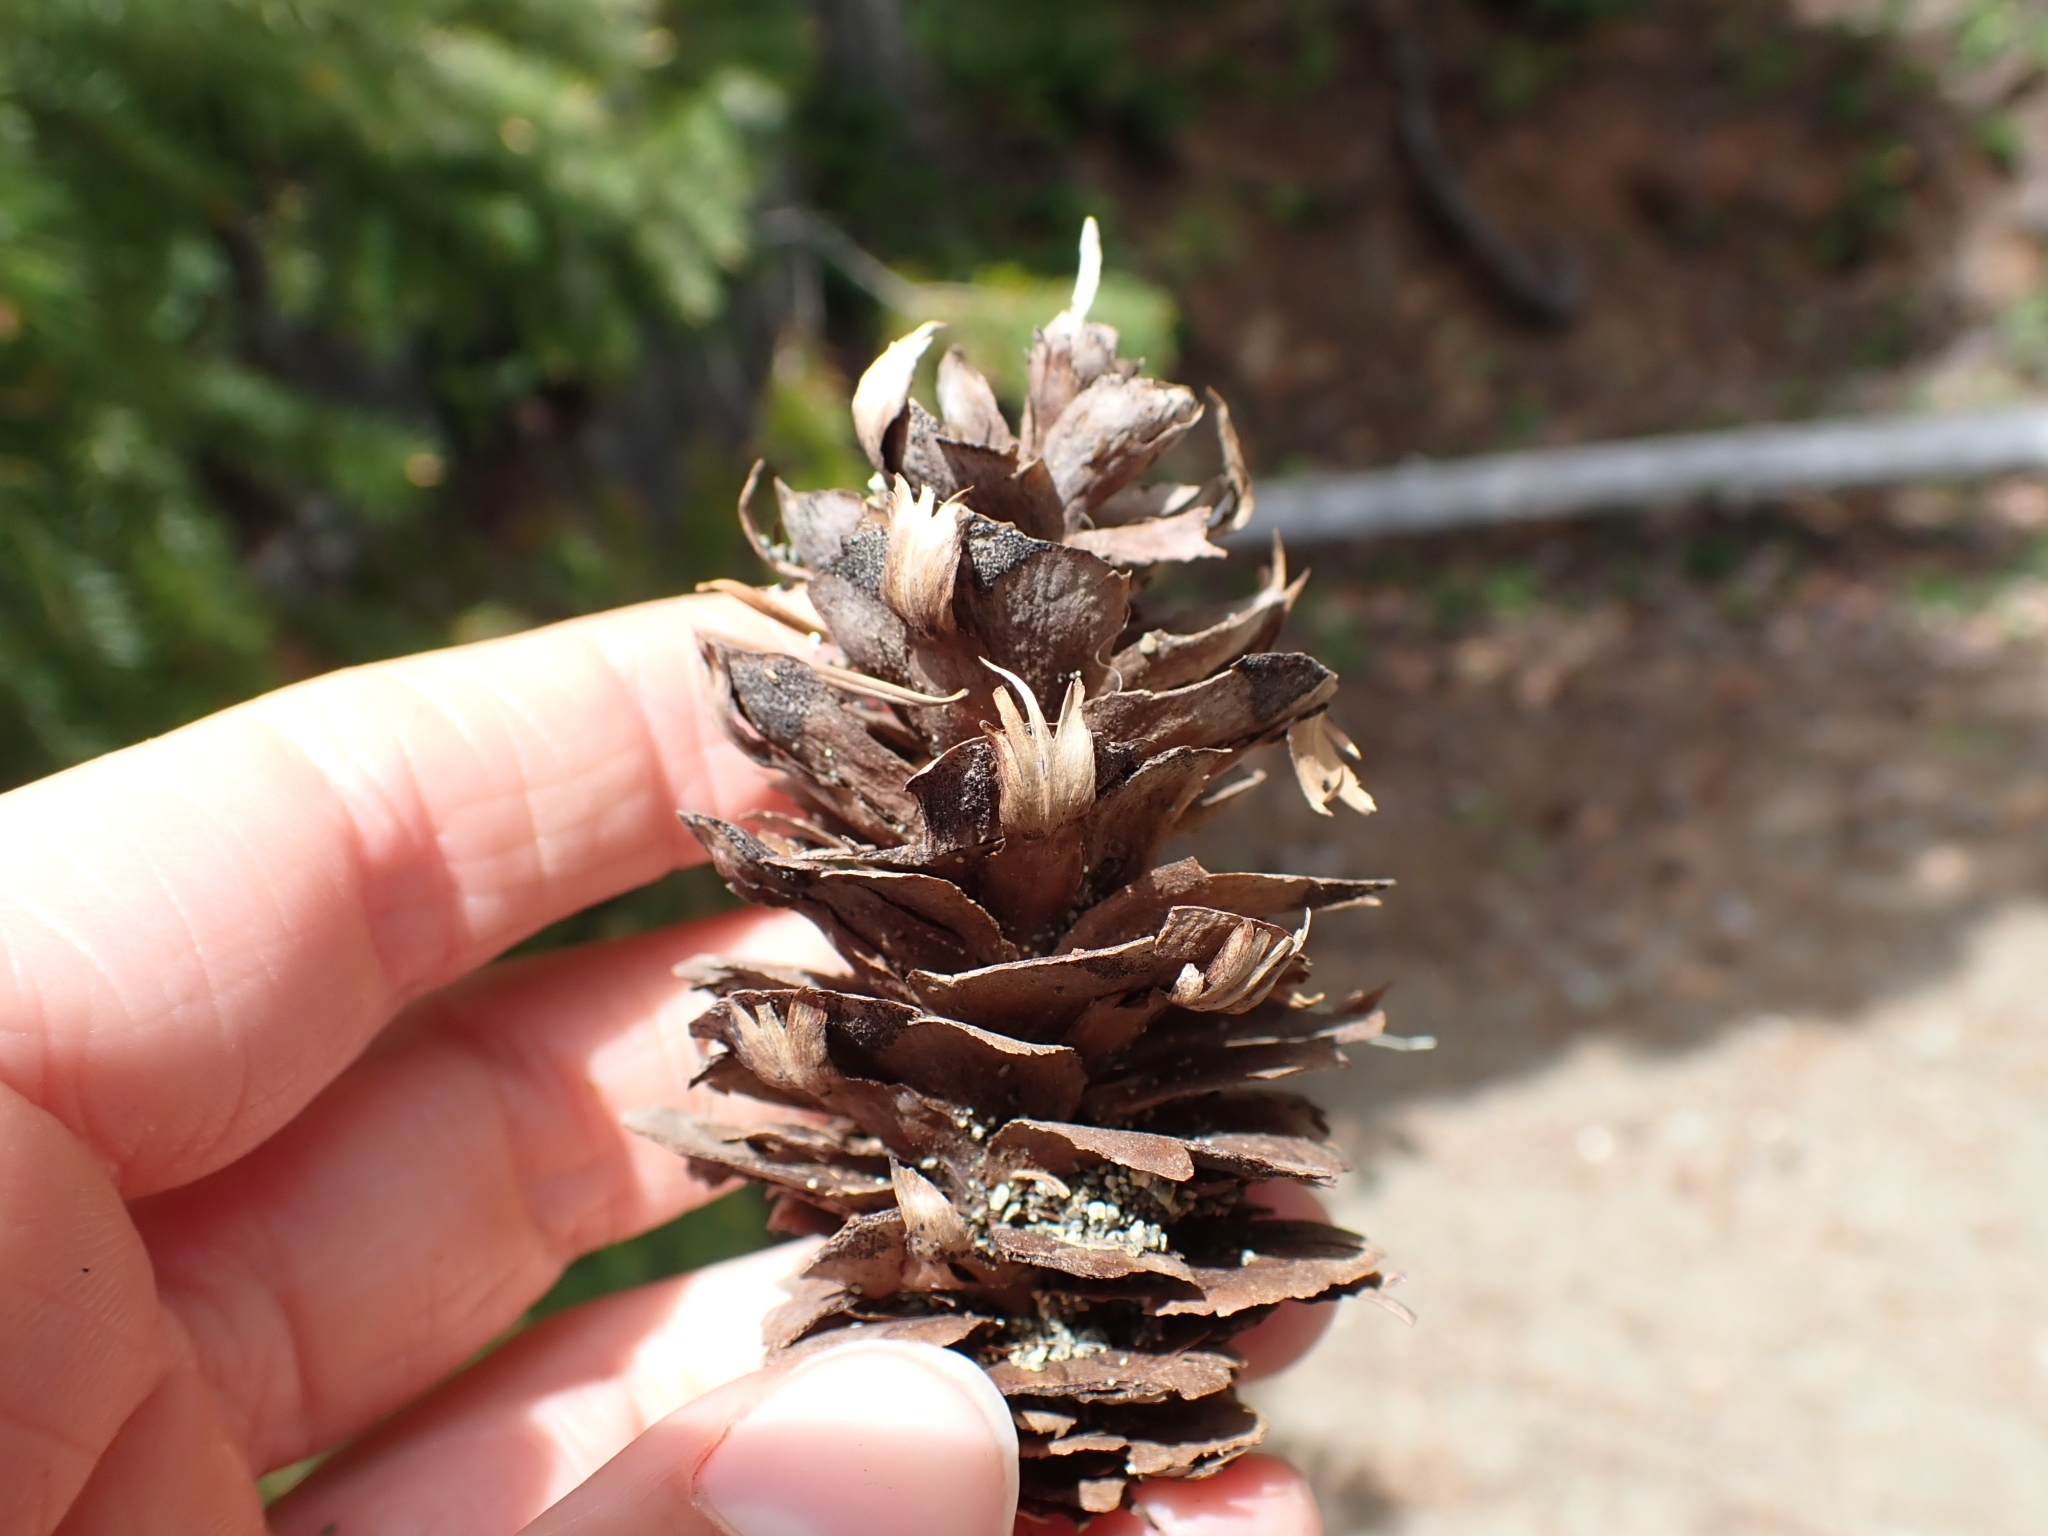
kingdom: Plantae
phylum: Tracheophyta
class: Pinopsida
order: Pinales
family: Pinaceae
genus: Pseudotsuga
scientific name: Pseudotsuga menziesii
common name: Douglas fir
